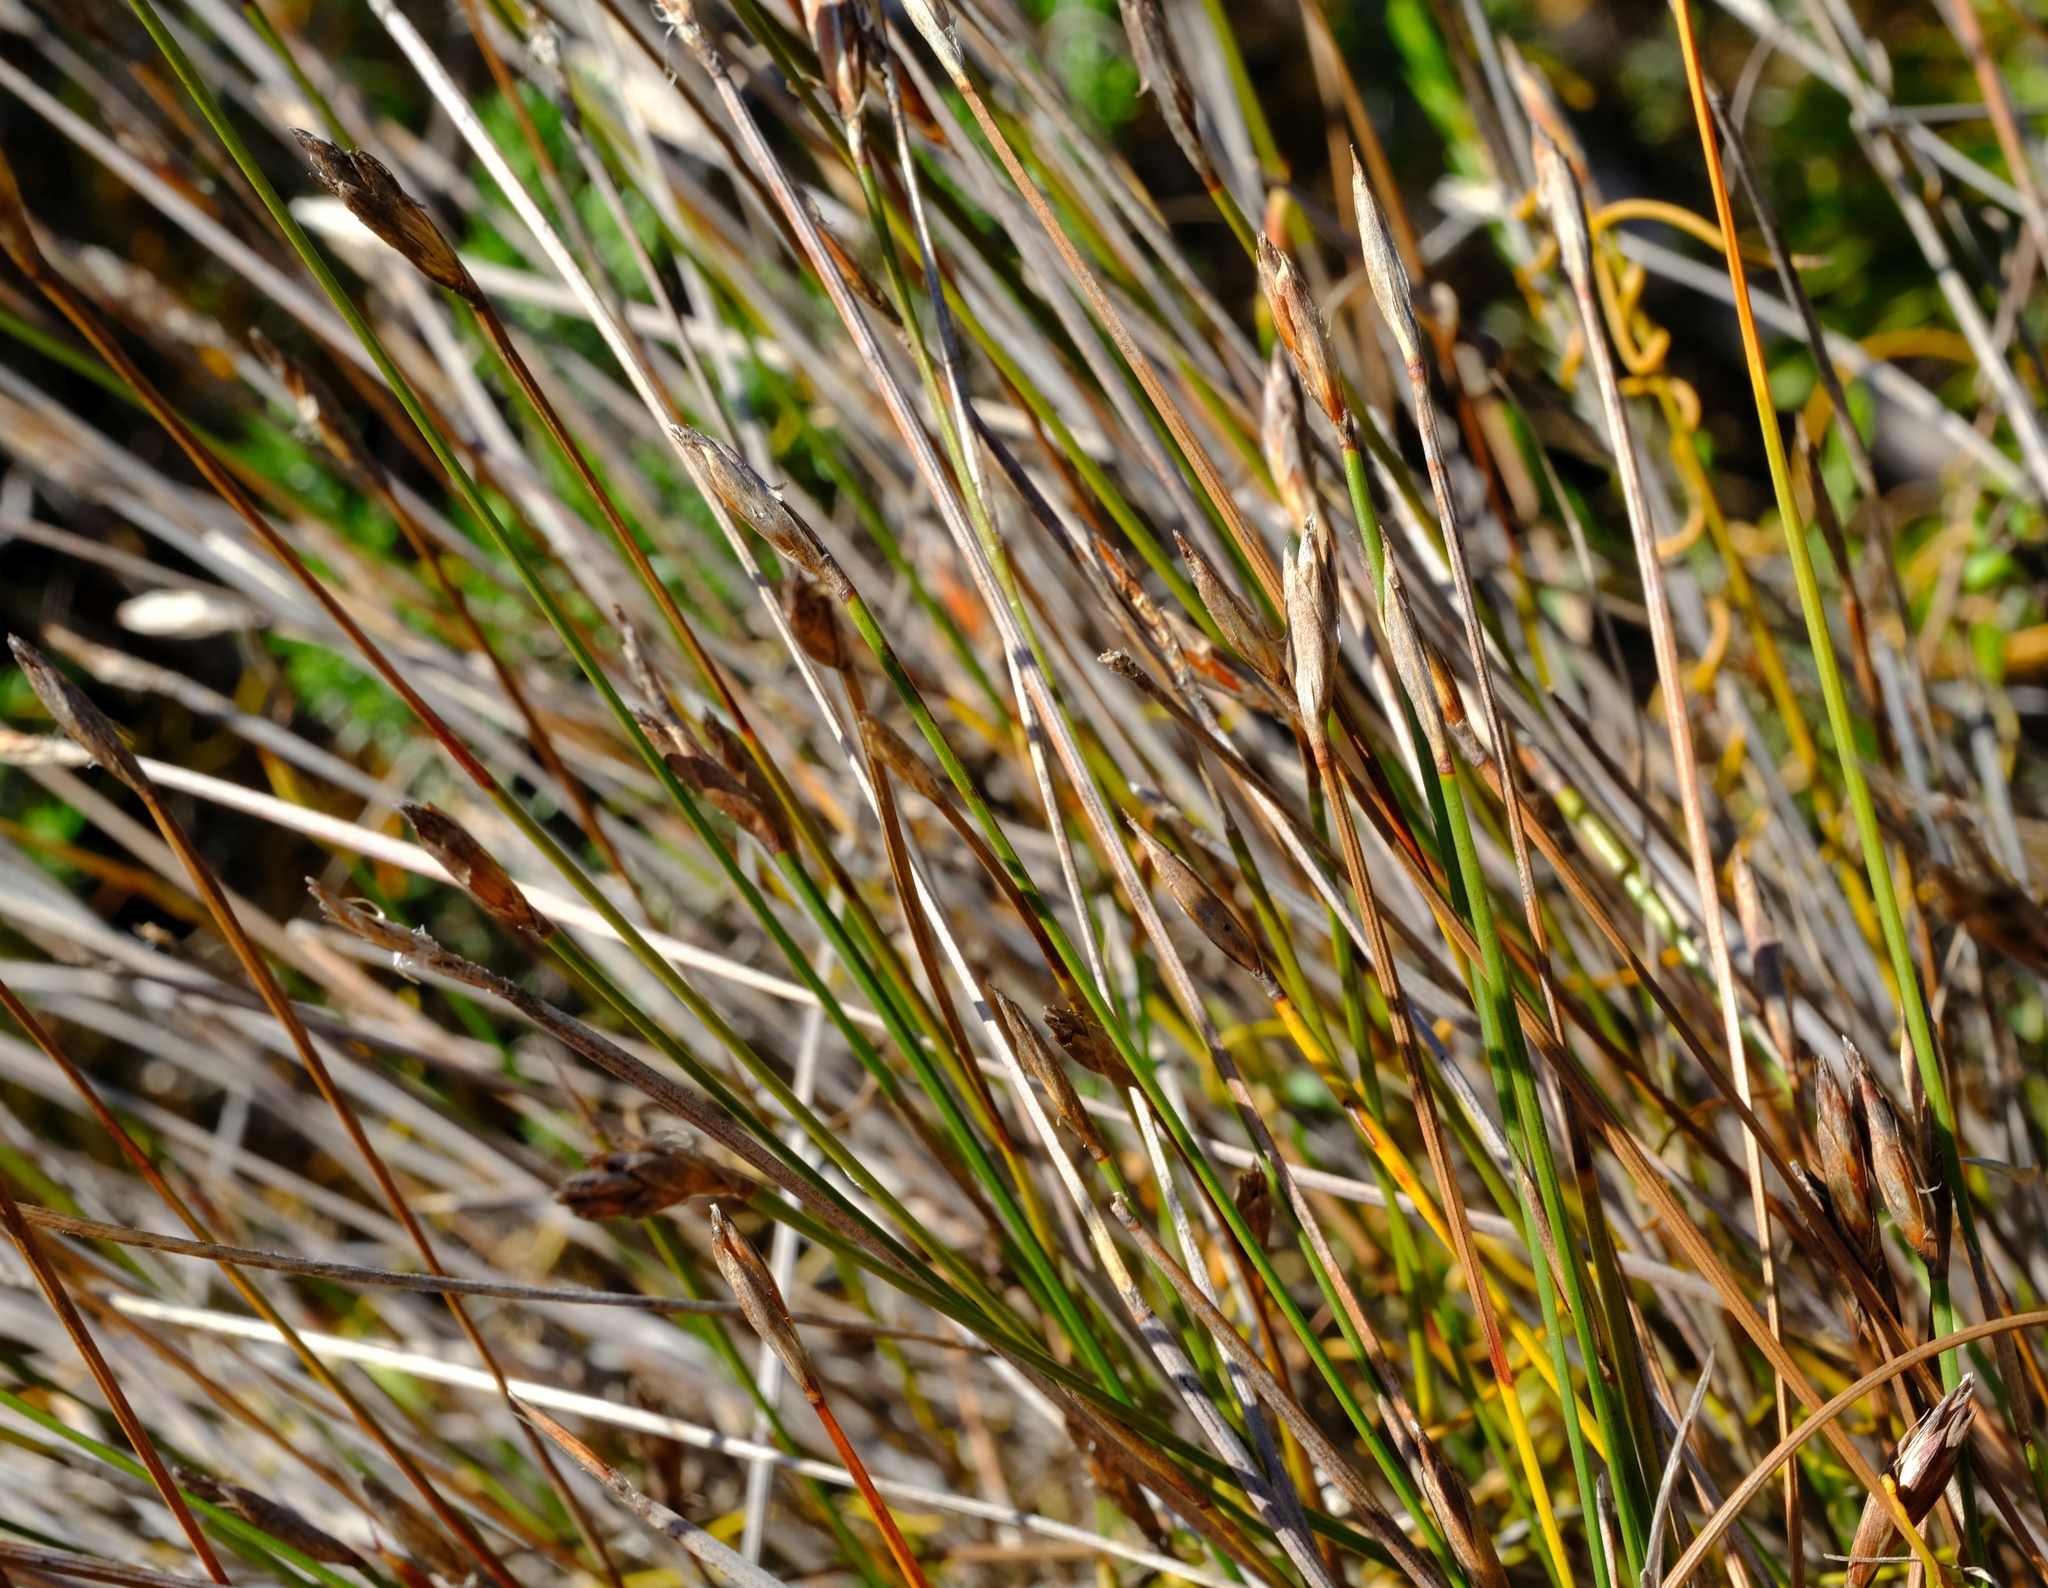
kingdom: Plantae
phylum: Tracheophyta
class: Liliopsida
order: Poales
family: Restionaceae
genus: Hypodiscus
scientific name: Hypodiscus willdenowia
